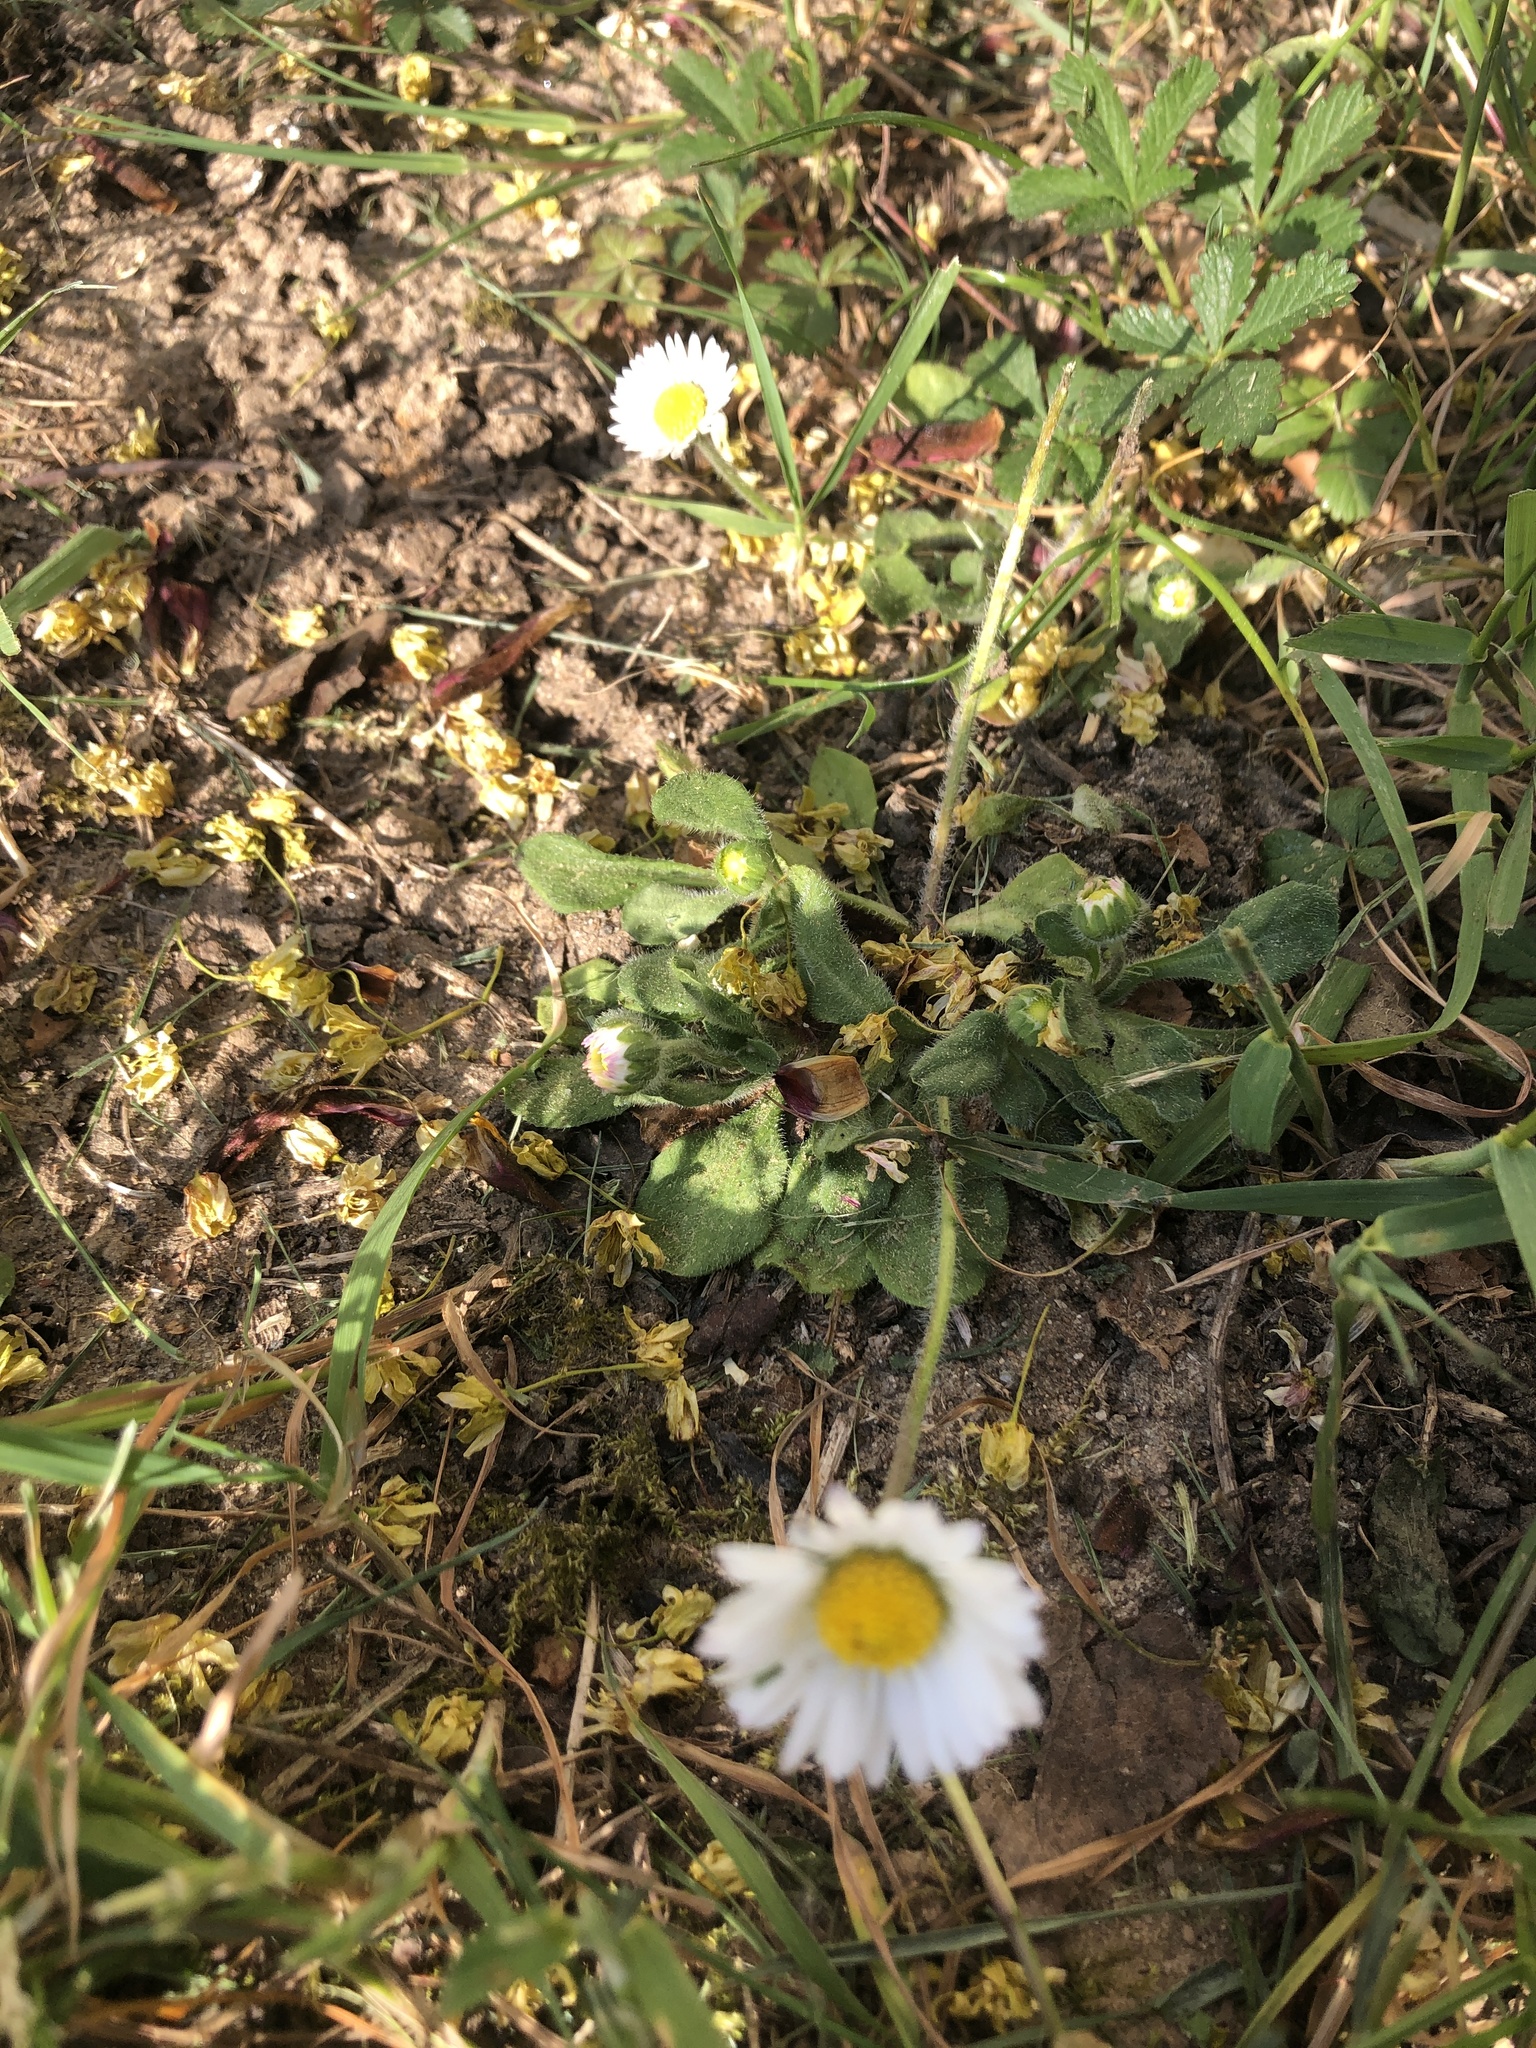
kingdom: Plantae
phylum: Tracheophyta
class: Magnoliopsida
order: Asterales
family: Asteraceae
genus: Bellis
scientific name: Bellis perennis
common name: Lawndaisy
